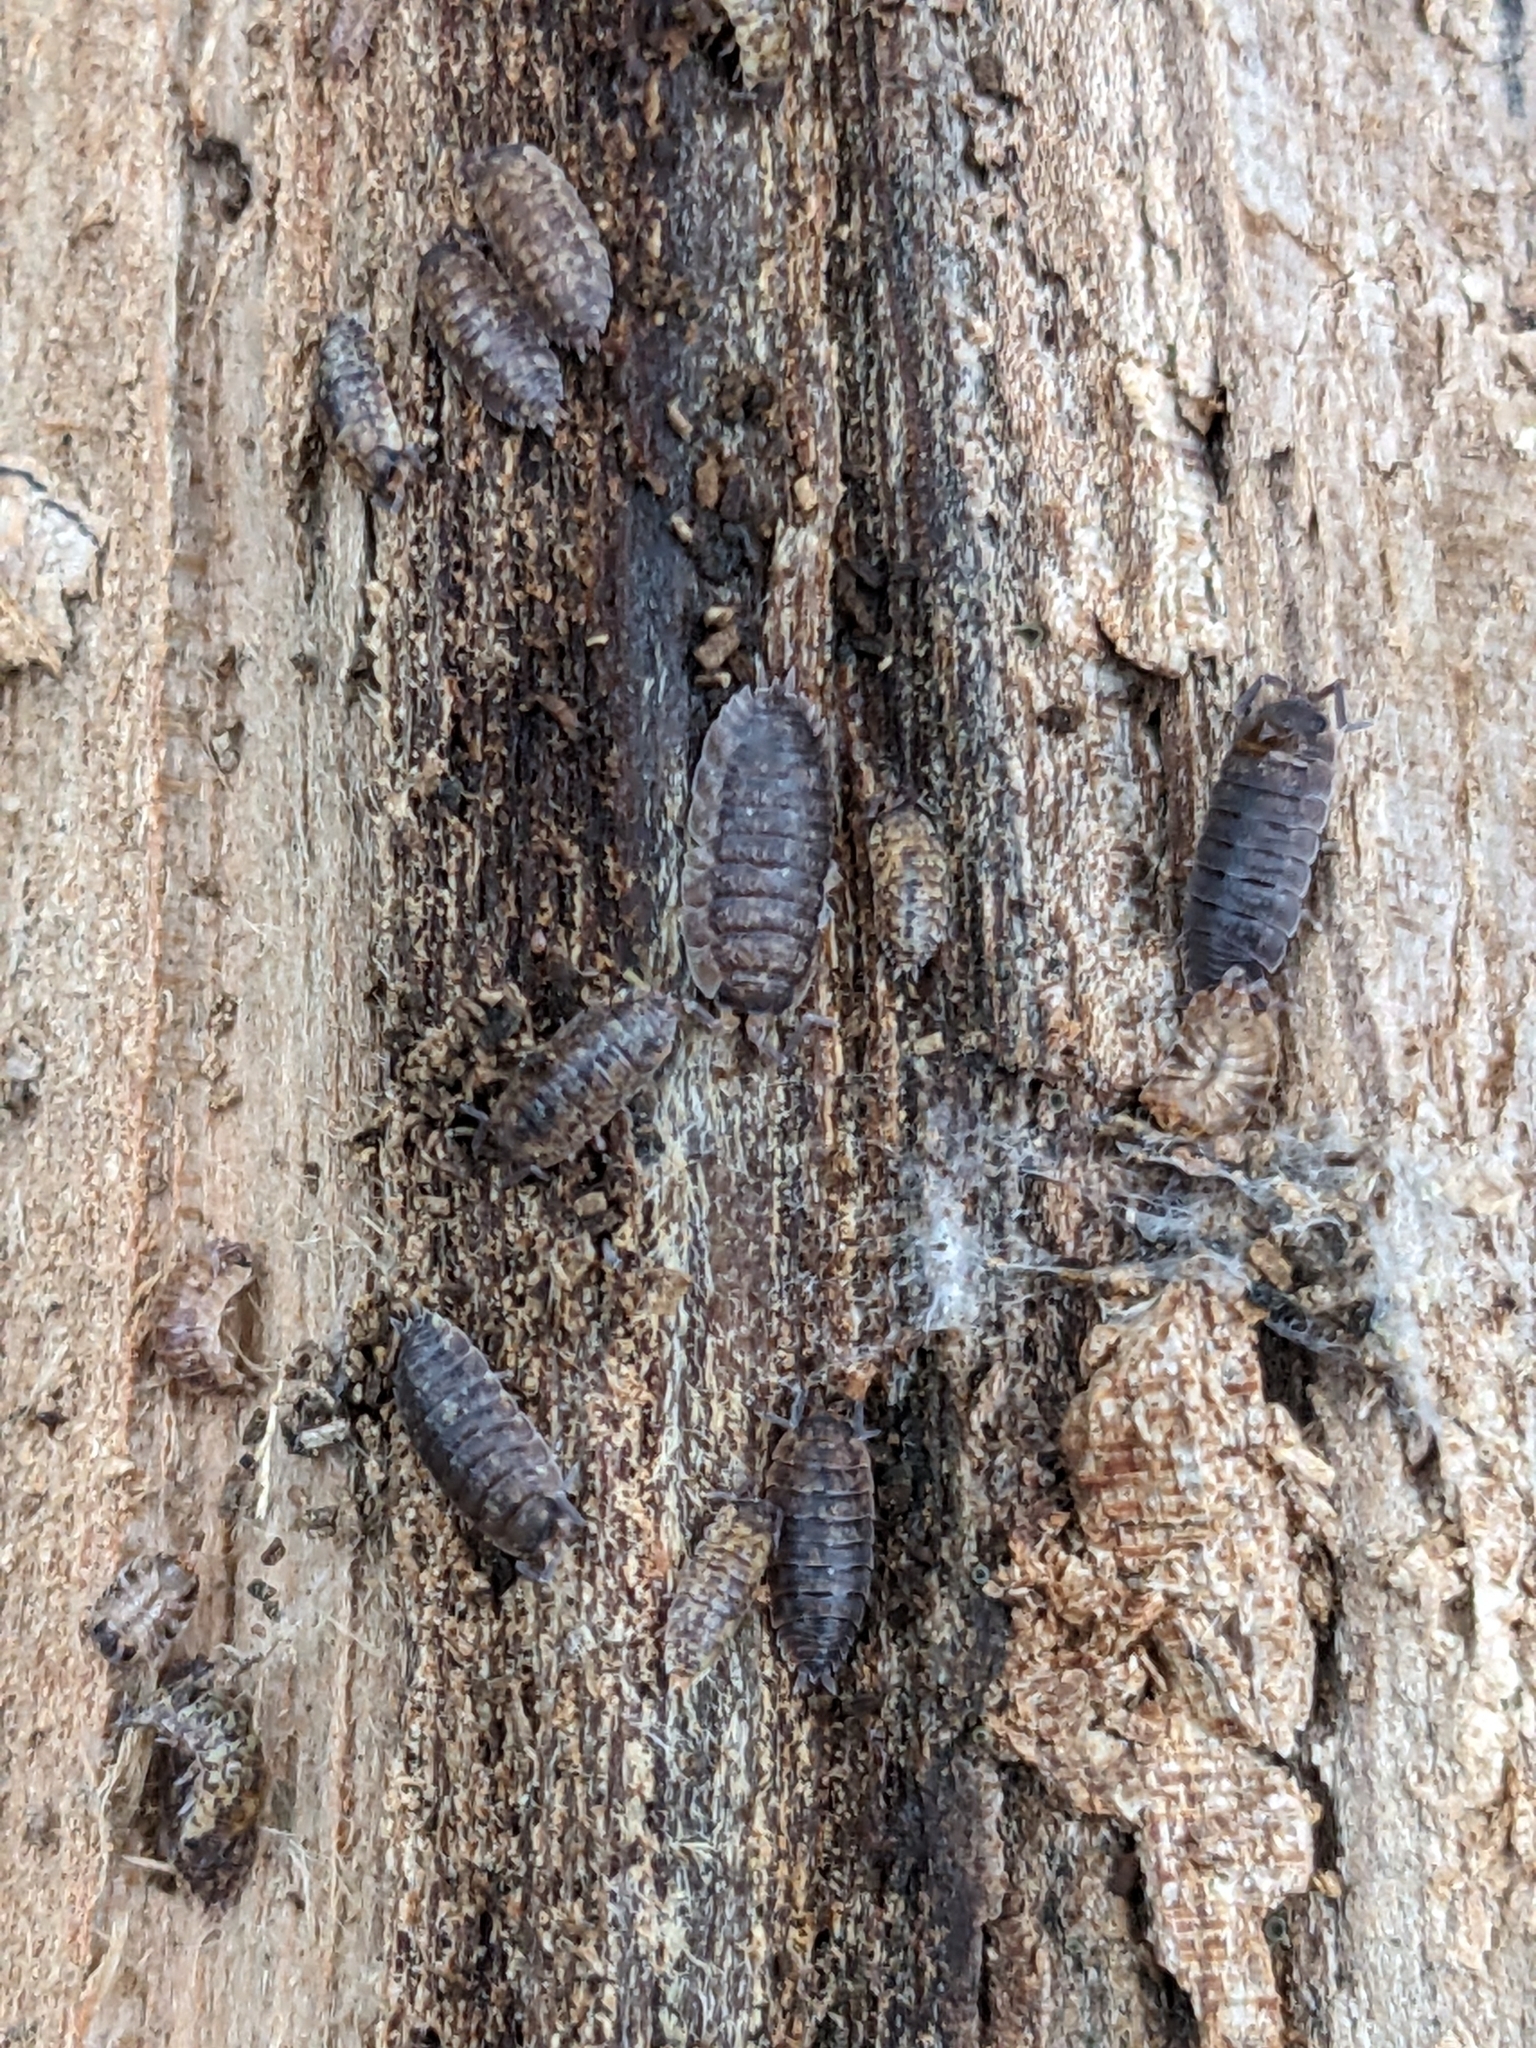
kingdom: Animalia
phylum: Arthropoda
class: Malacostraca
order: Isopoda
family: Porcellionidae
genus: Porcellio
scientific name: Porcellio scaber
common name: Common rough woodlouse
